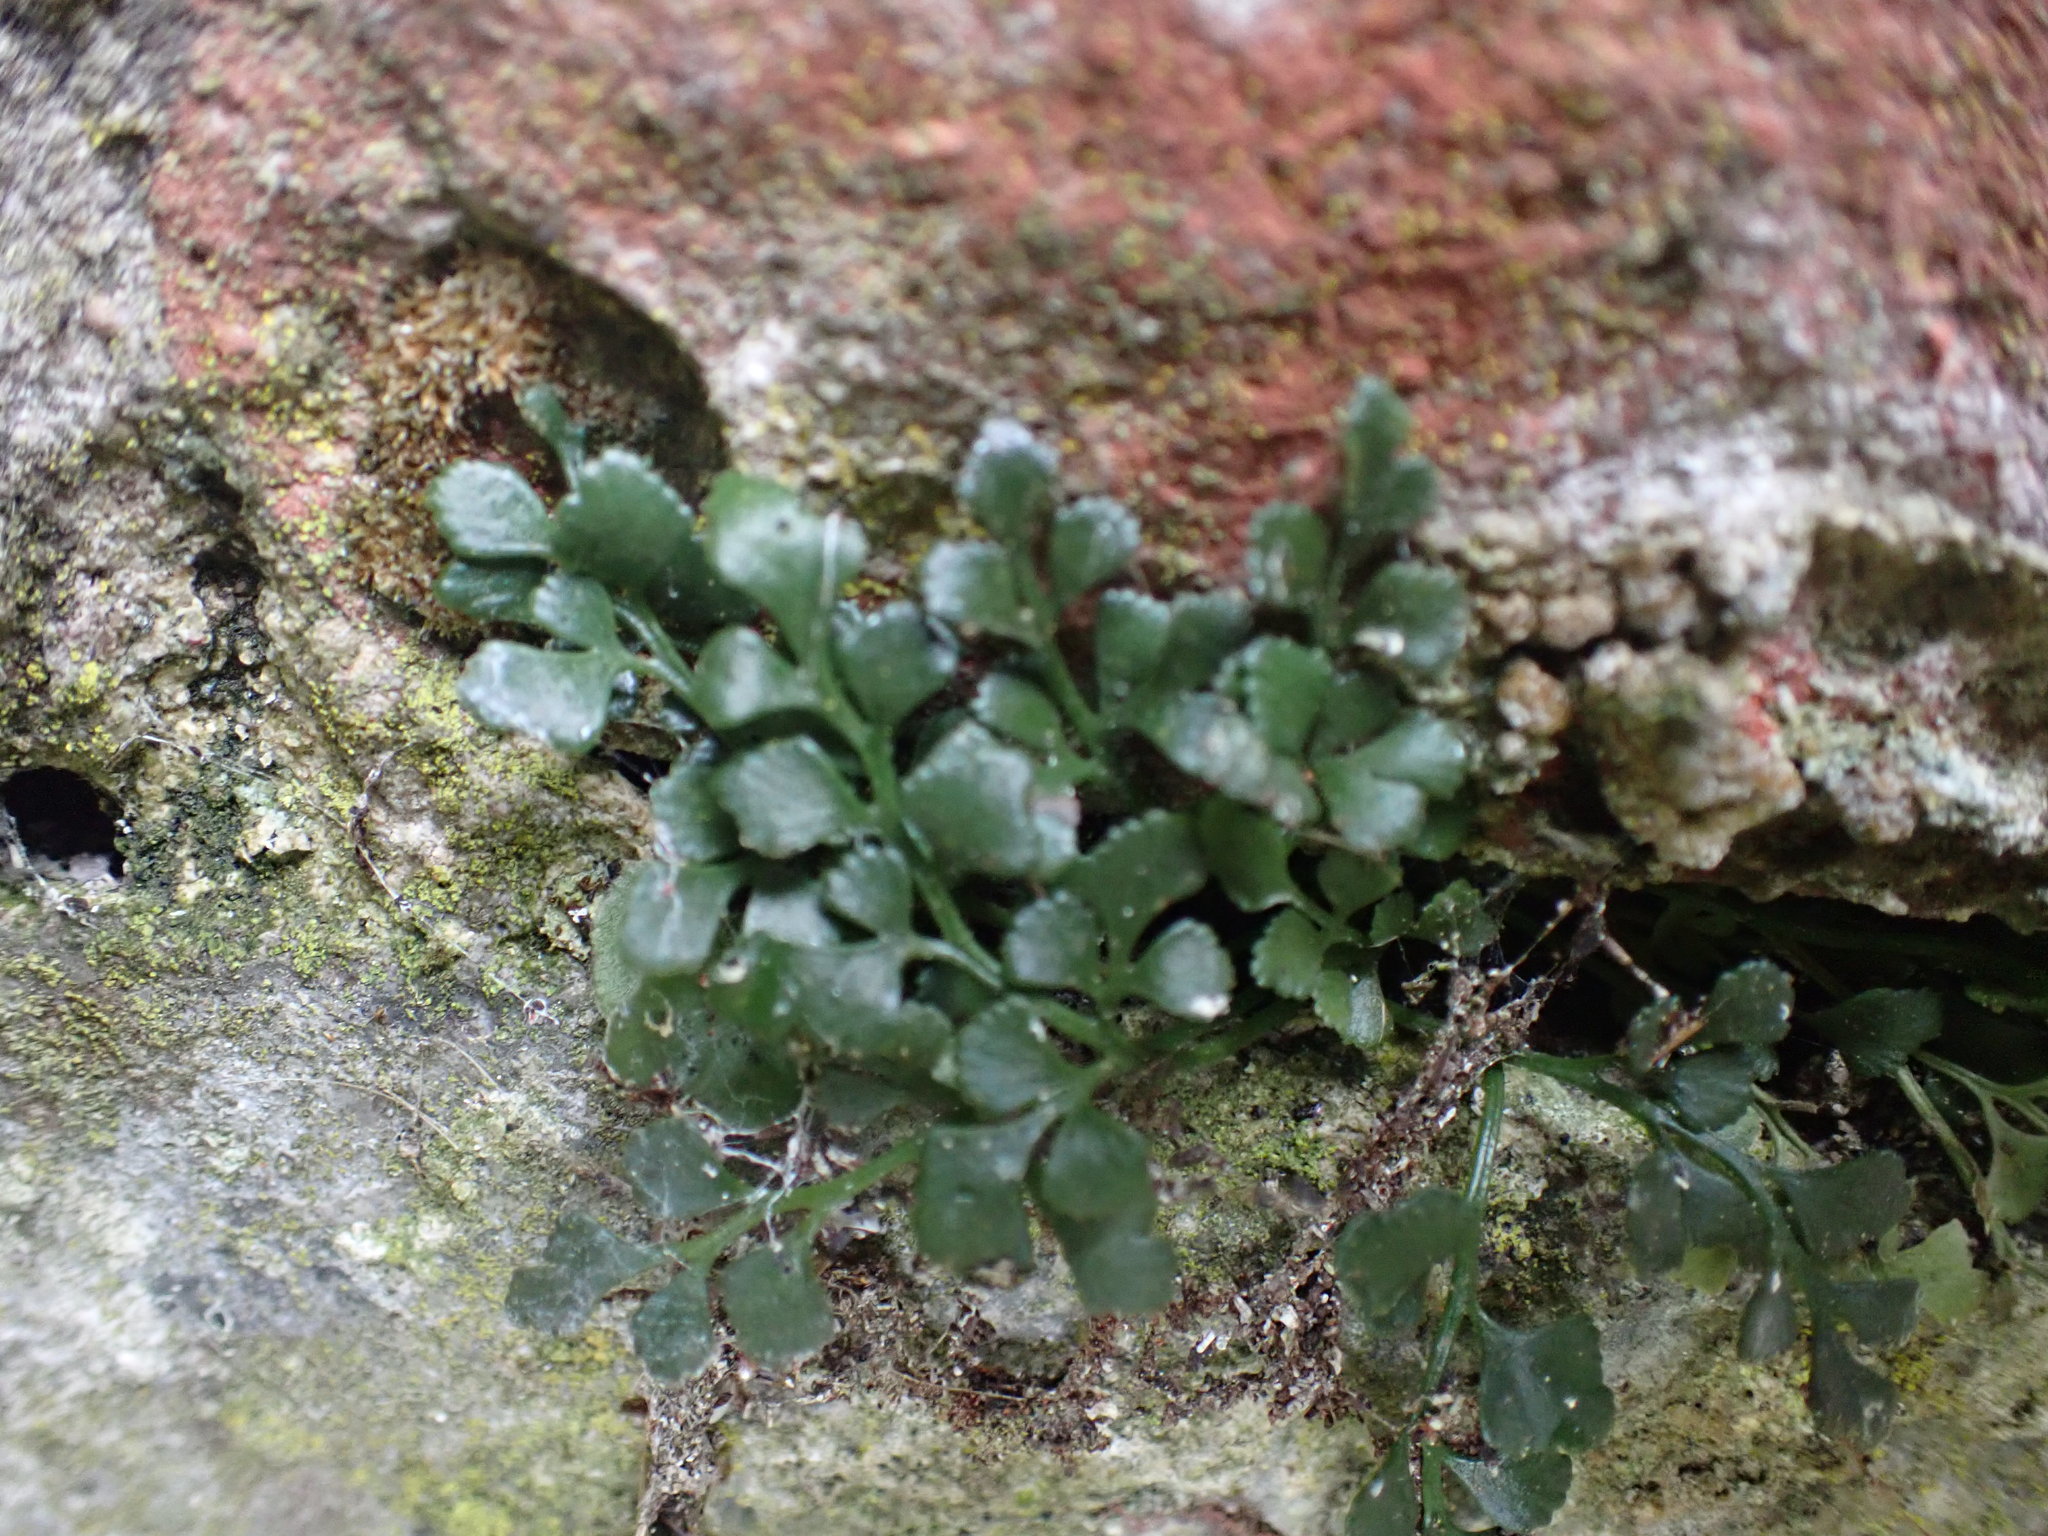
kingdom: Plantae
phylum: Tracheophyta
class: Polypodiopsida
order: Polypodiales
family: Aspleniaceae
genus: Asplenium
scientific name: Asplenium ruta-muraria
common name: Wall-rue
